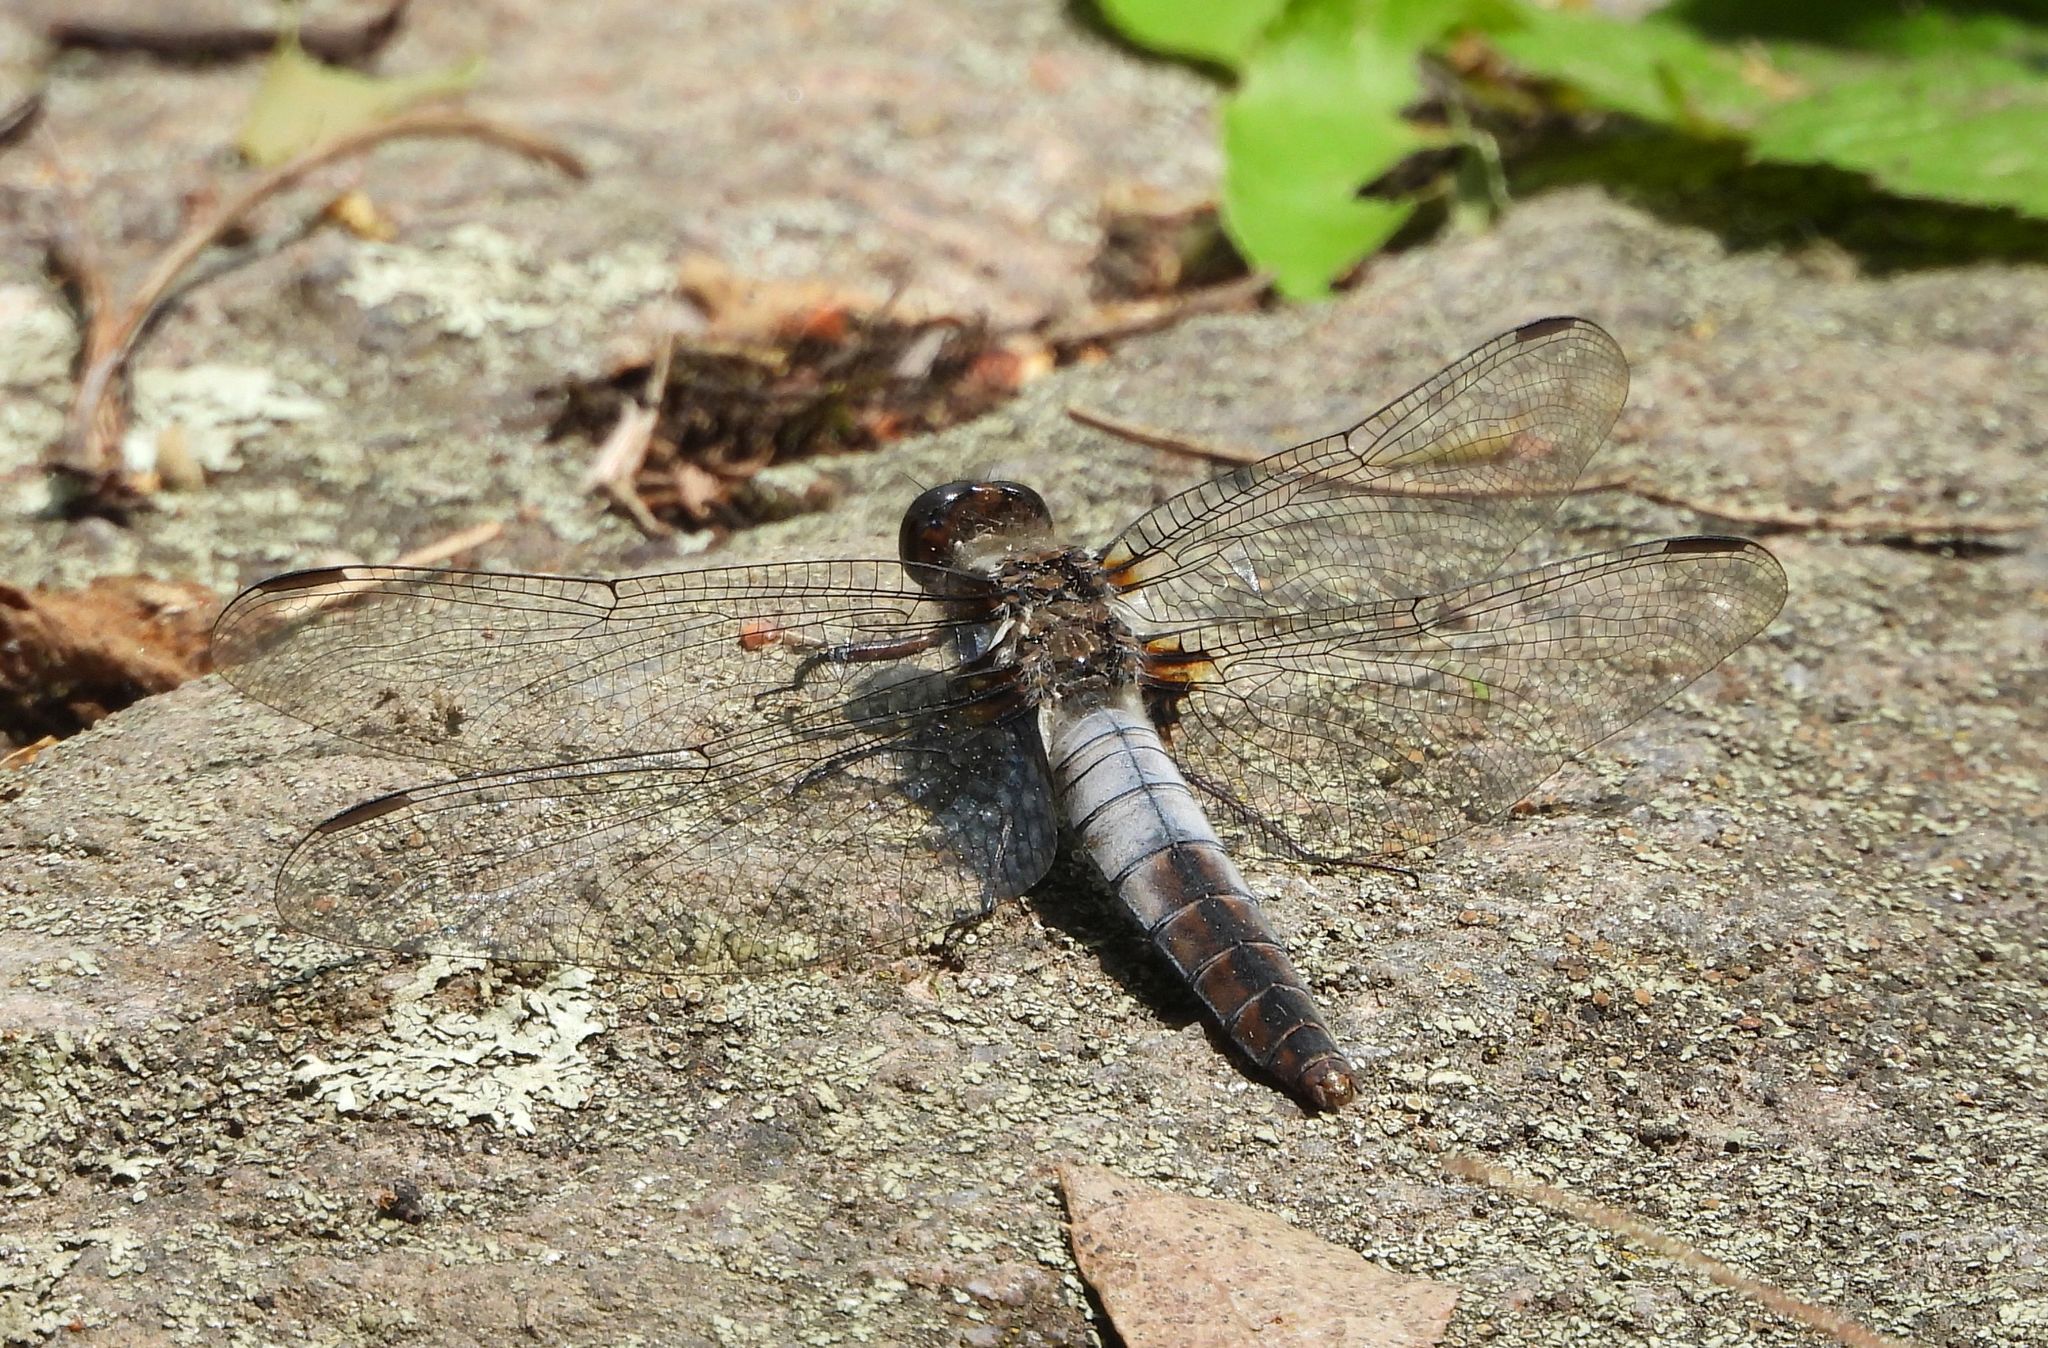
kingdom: Animalia
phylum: Arthropoda
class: Insecta
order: Odonata
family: Libellulidae
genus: Ladona
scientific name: Ladona julia
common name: Chalk-fronted corporal
